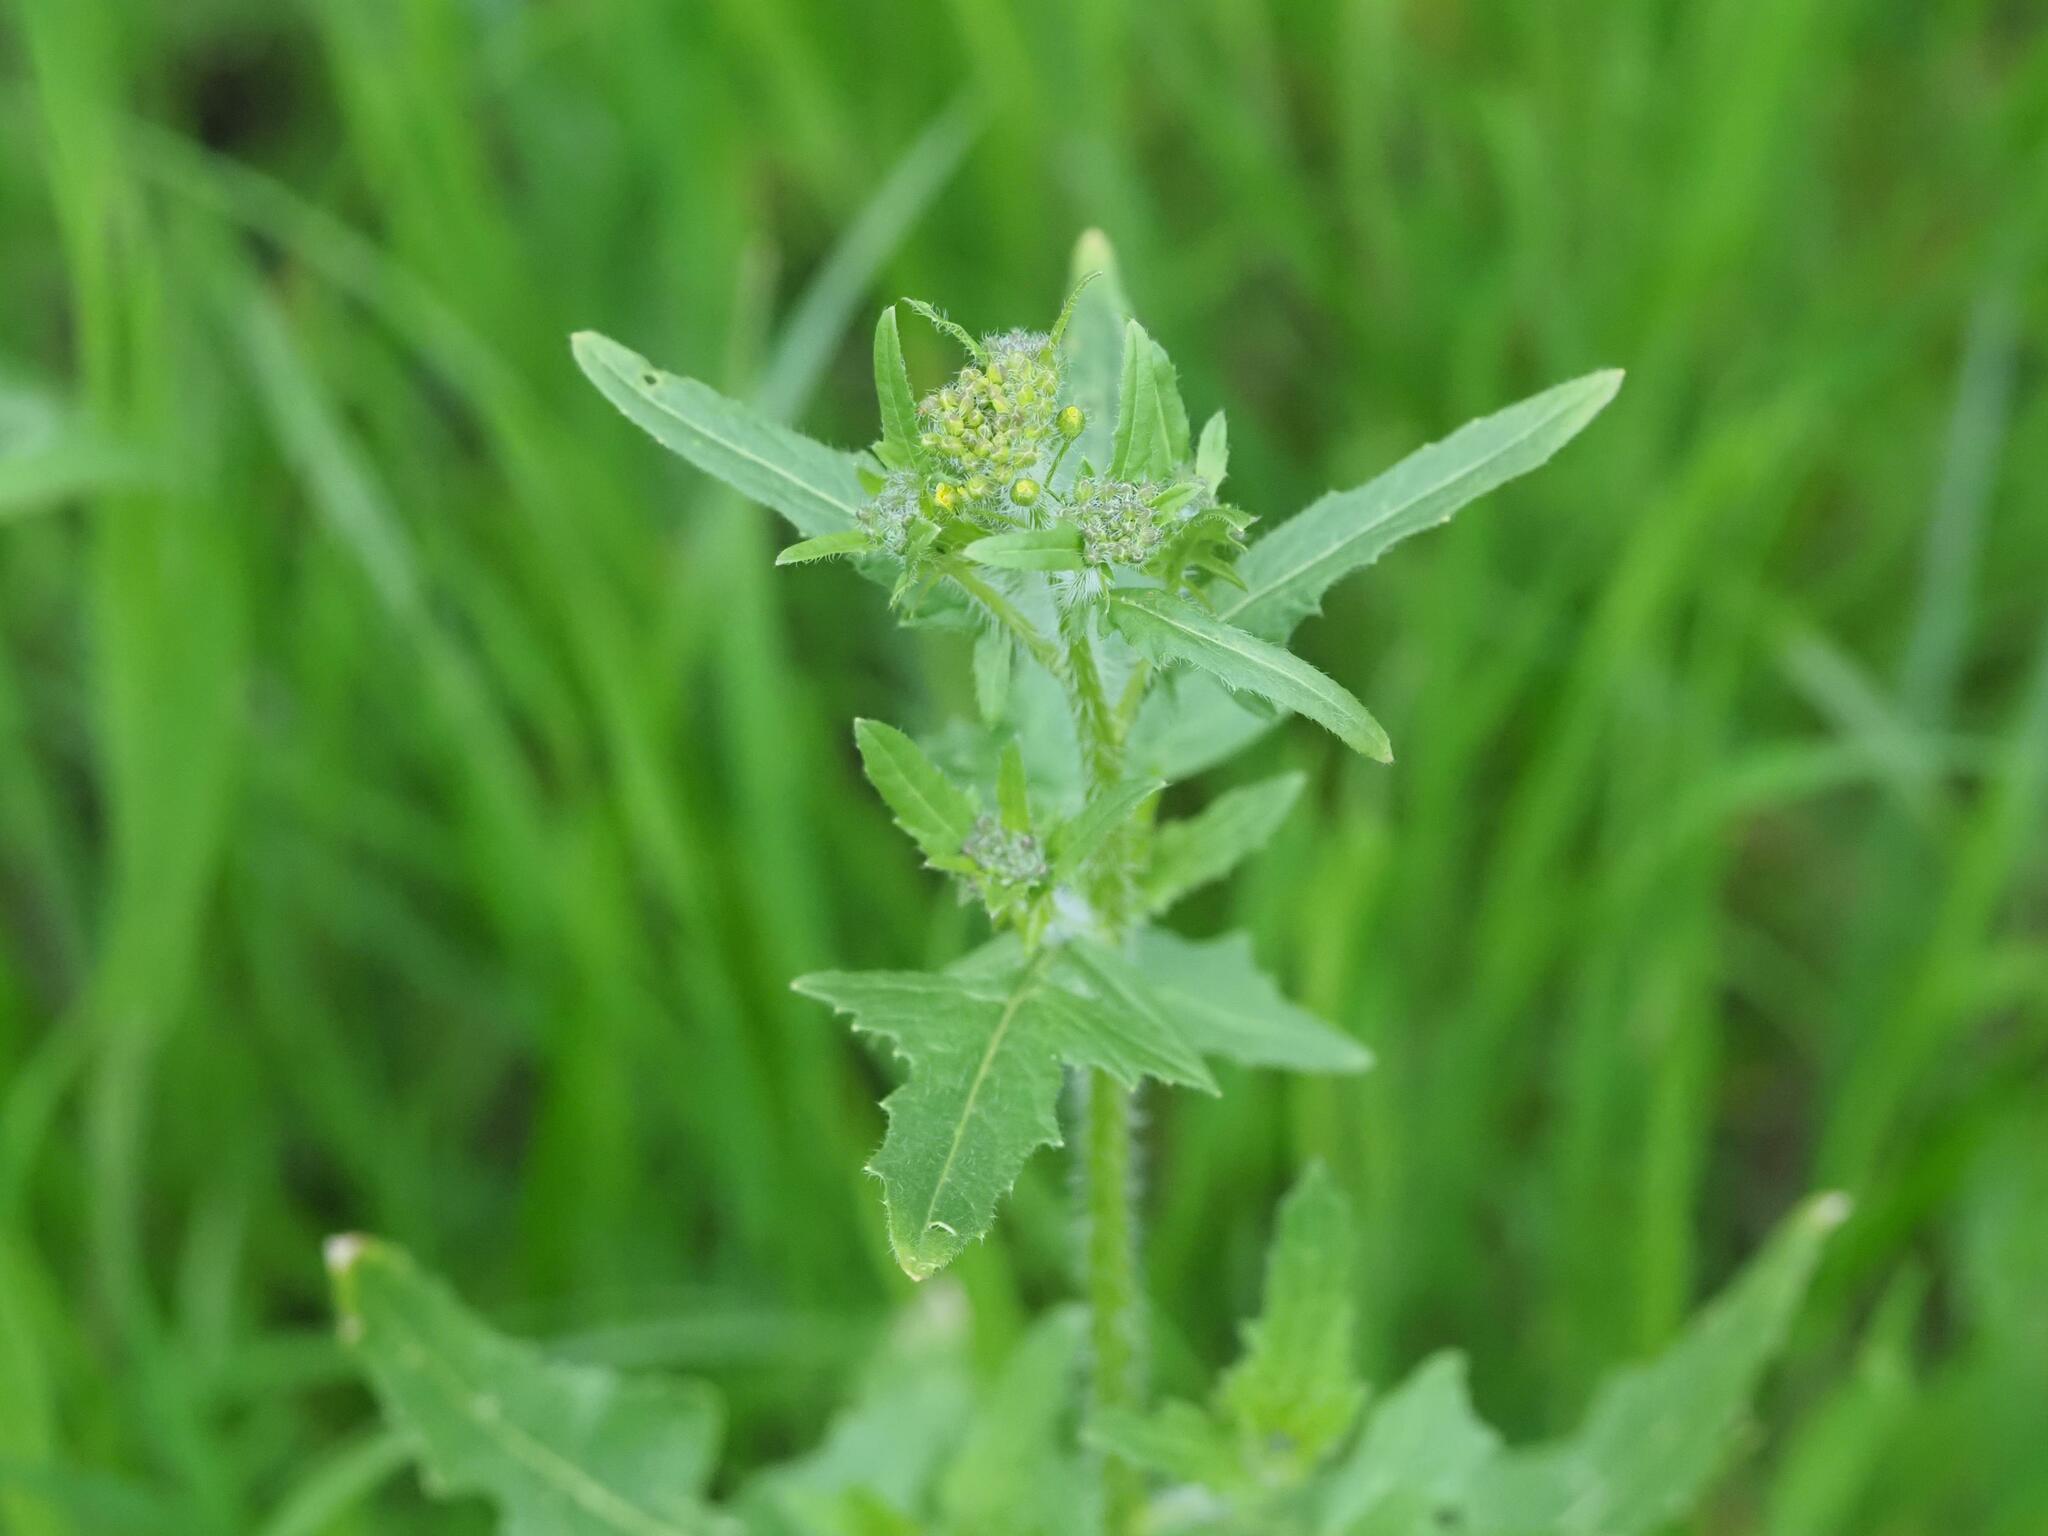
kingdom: Plantae
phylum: Tracheophyta
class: Magnoliopsida
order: Brassicales
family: Brassicaceae
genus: Sisymbrium
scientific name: Sisymbrium loeselii
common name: False london-rocket
